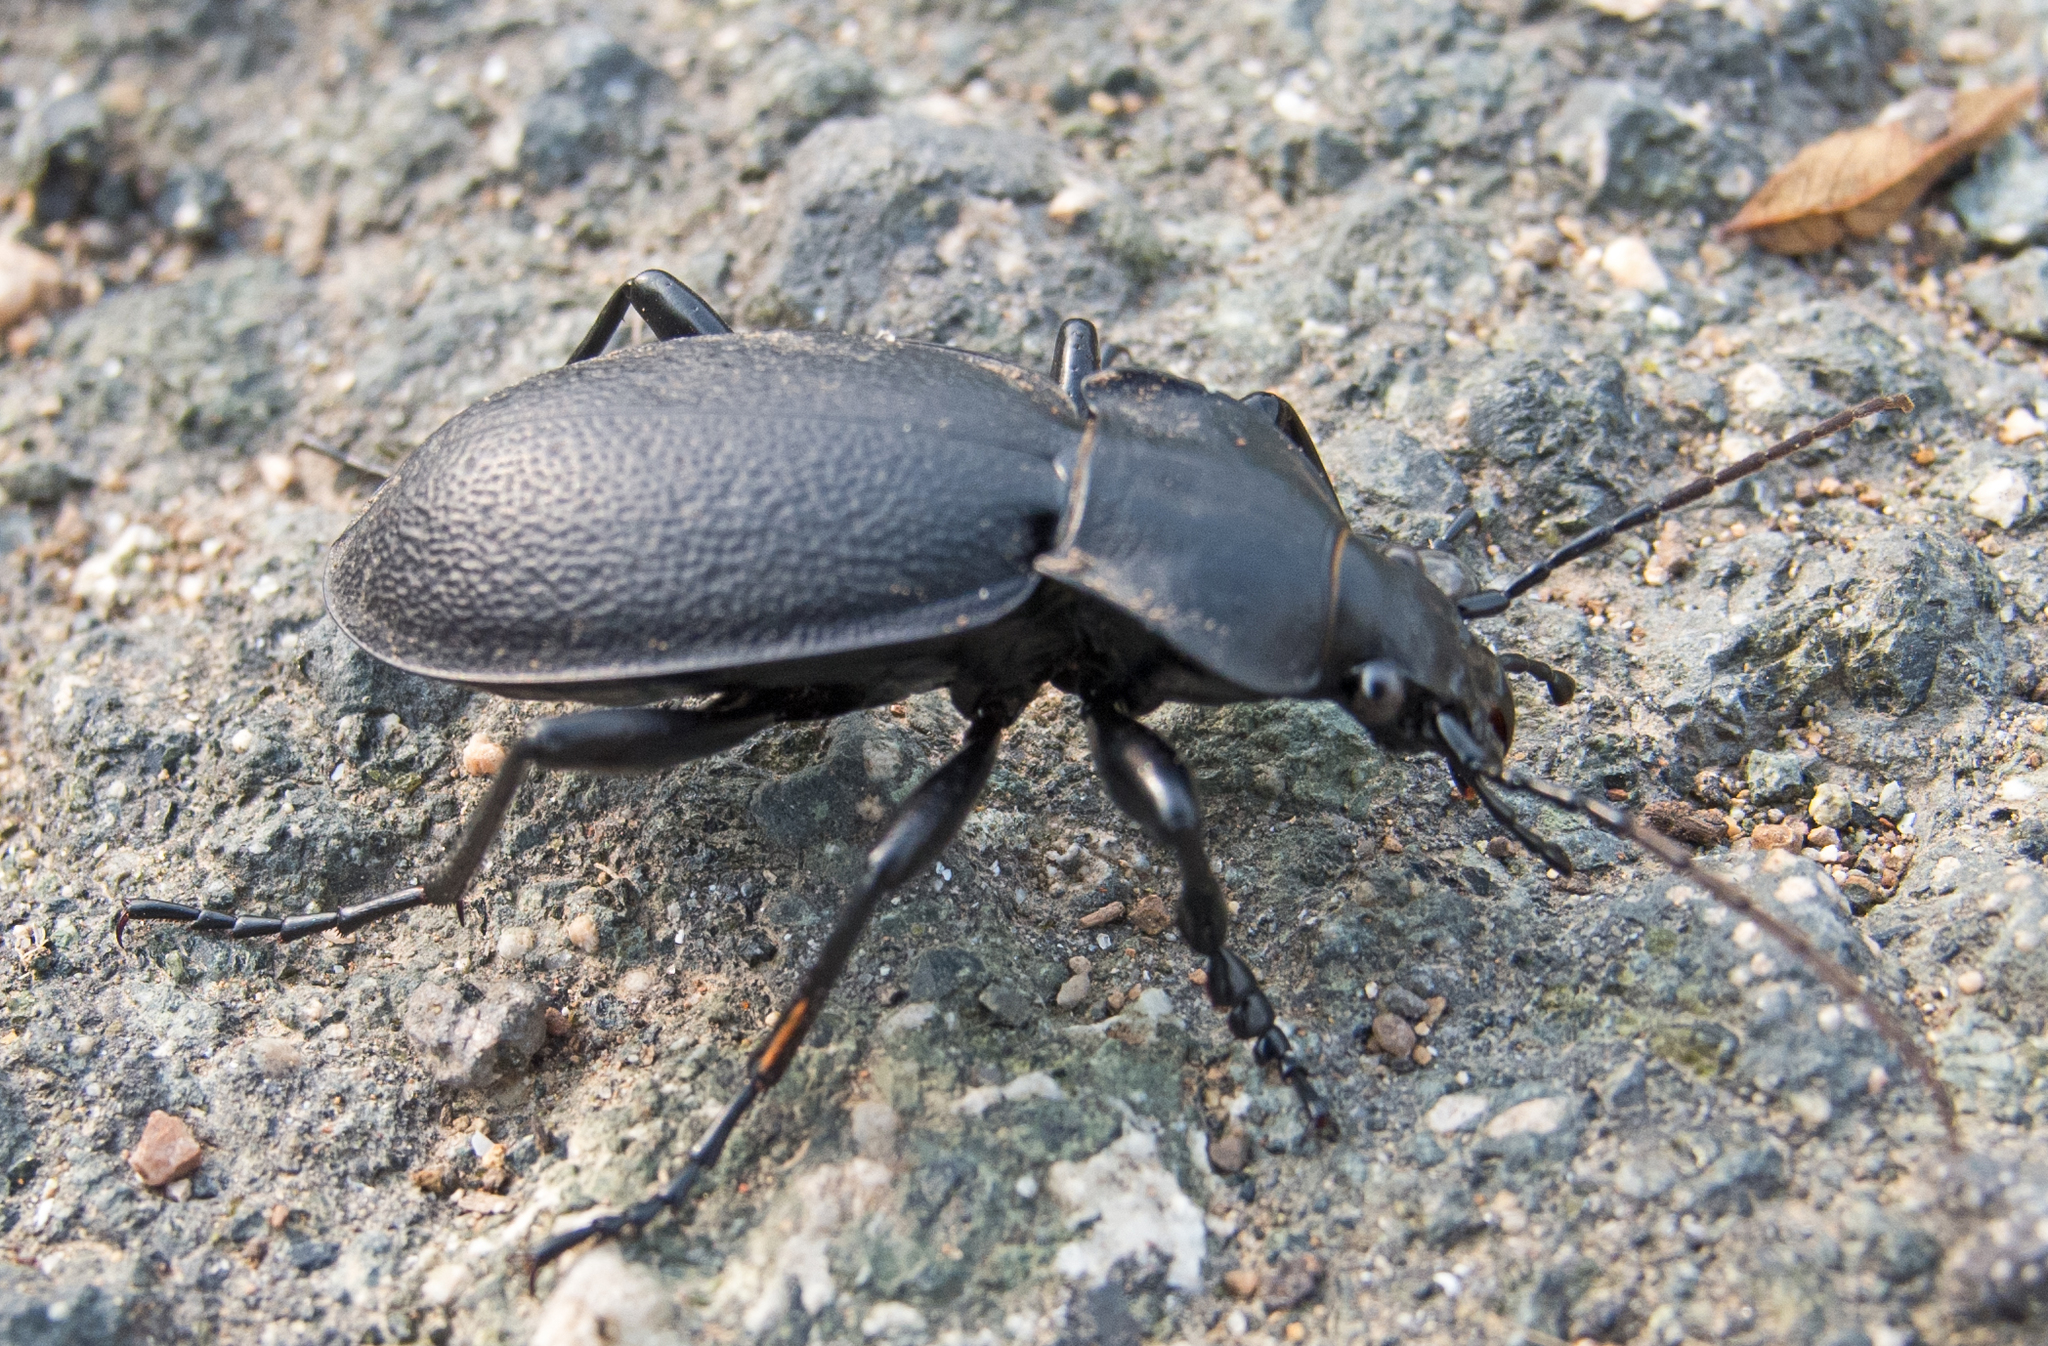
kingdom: Animalia
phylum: Arthropoda
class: Insecta
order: Coleoptera
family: Carabidae
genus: Carabus
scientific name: Carabus coriaceus
